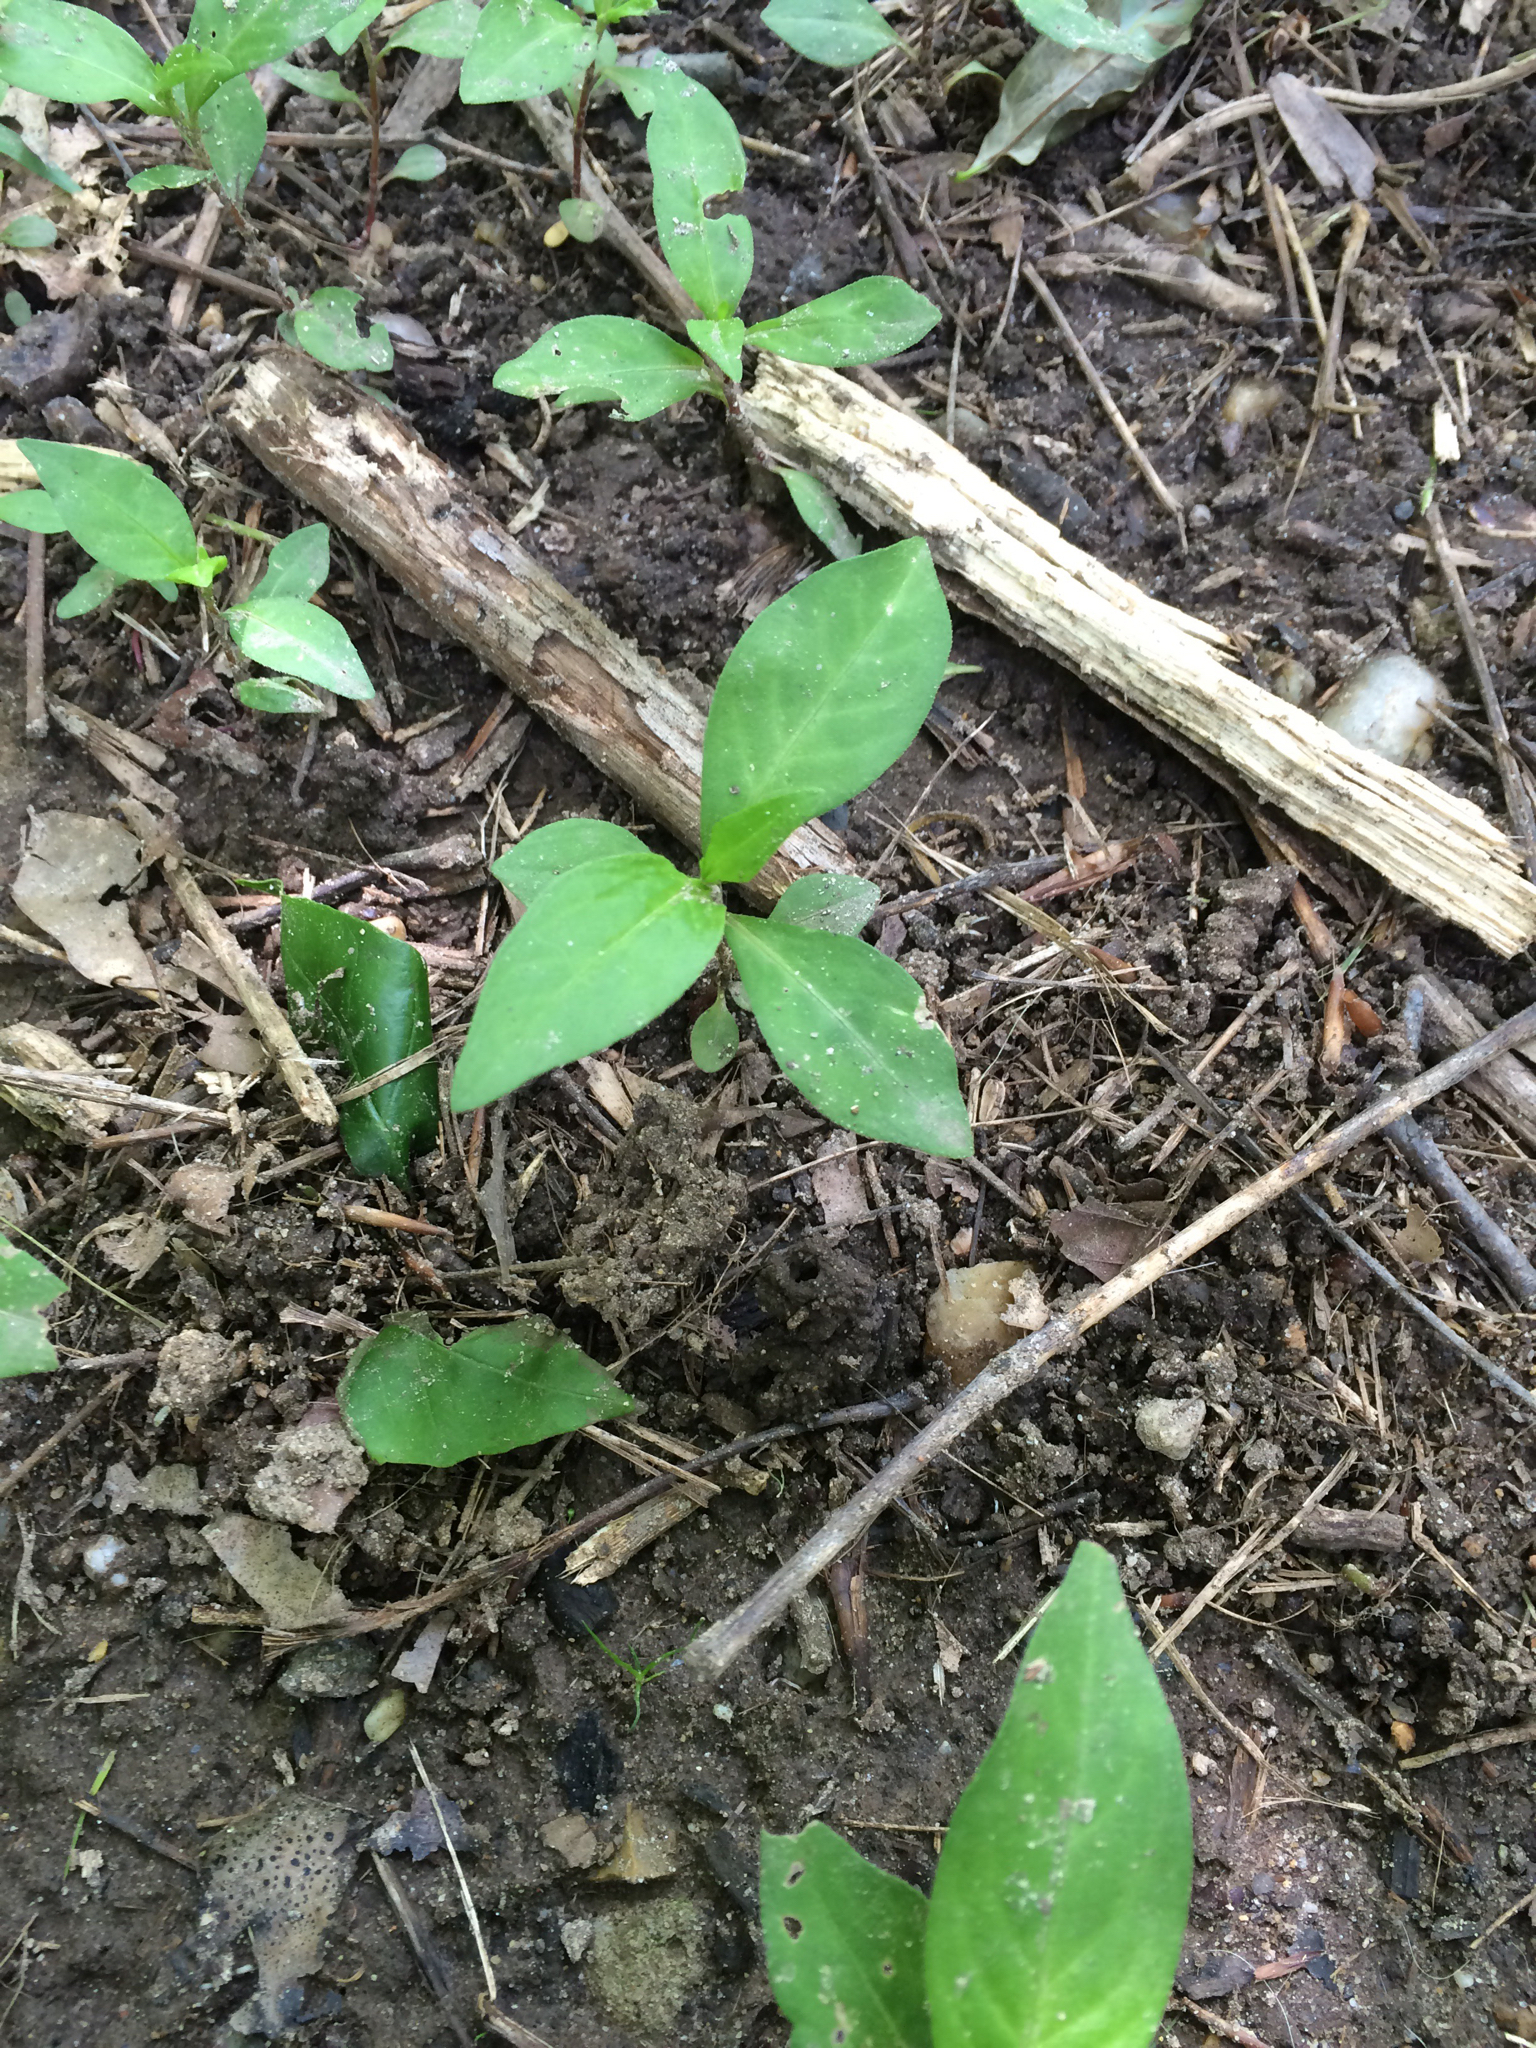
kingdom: Plantae
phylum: Tracheophyta
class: Magnoliopsida
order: Caryophyllales
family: Polygonaceae
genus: Persicaria
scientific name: Persicaria longiseta
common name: Bristly lady's-thumb
